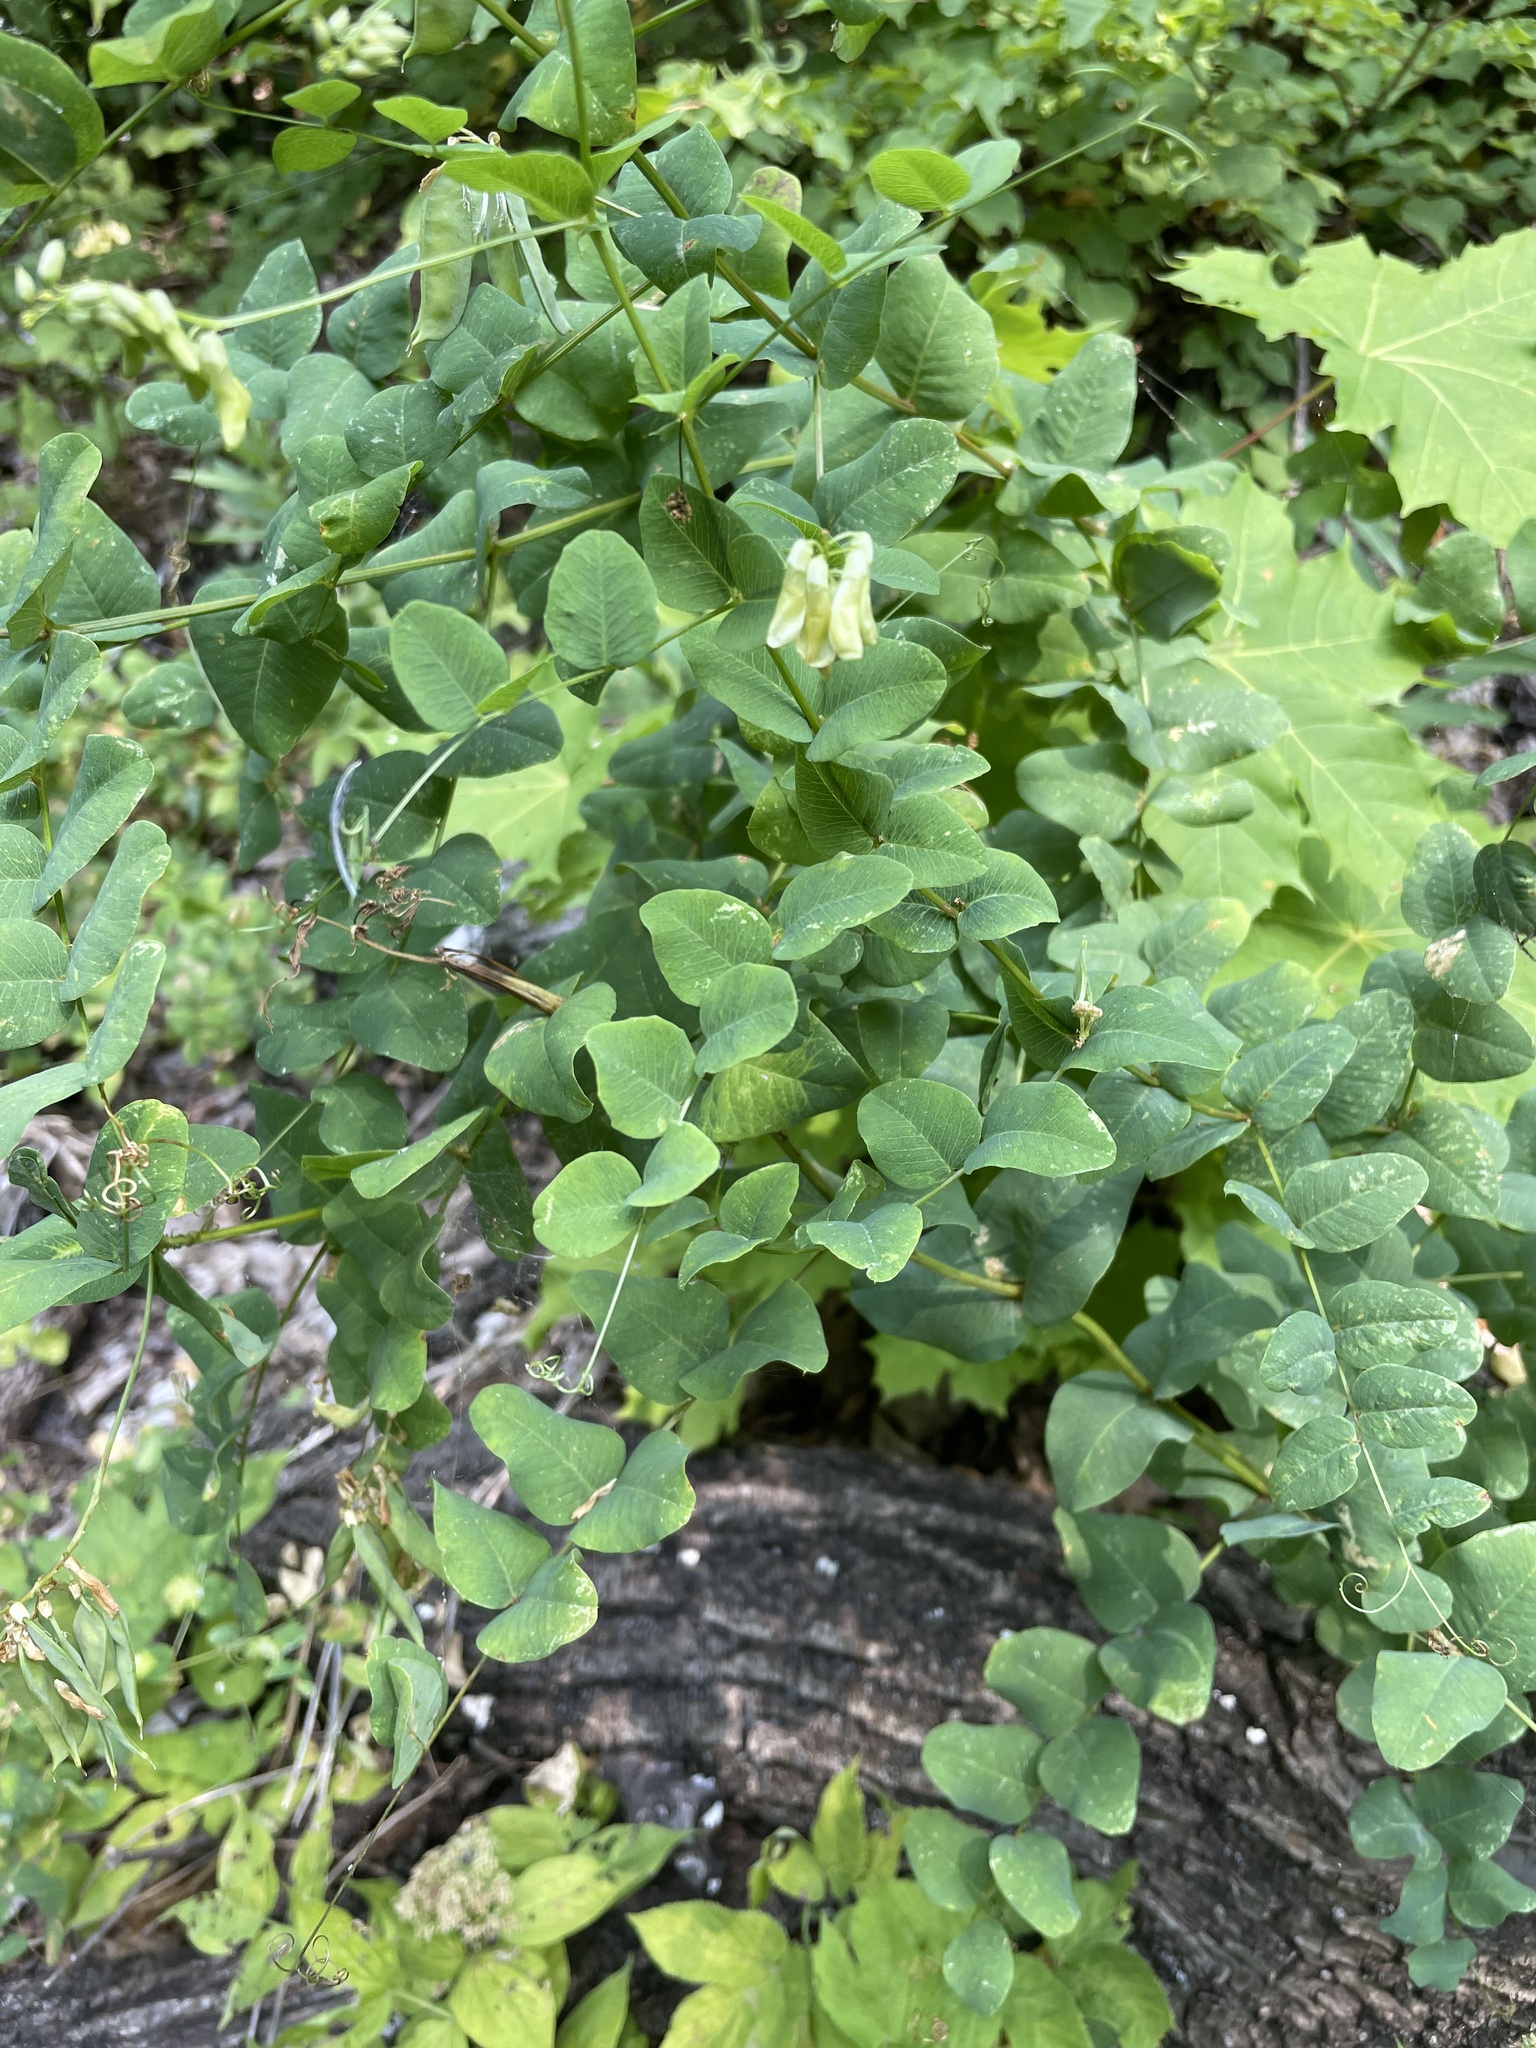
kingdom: Plantae
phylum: Tracheophyta
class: Magnoliopsida
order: Fabales
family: Fabaceae
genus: Vicia
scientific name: Vicia pisiformis
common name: Pale-flower vetch
